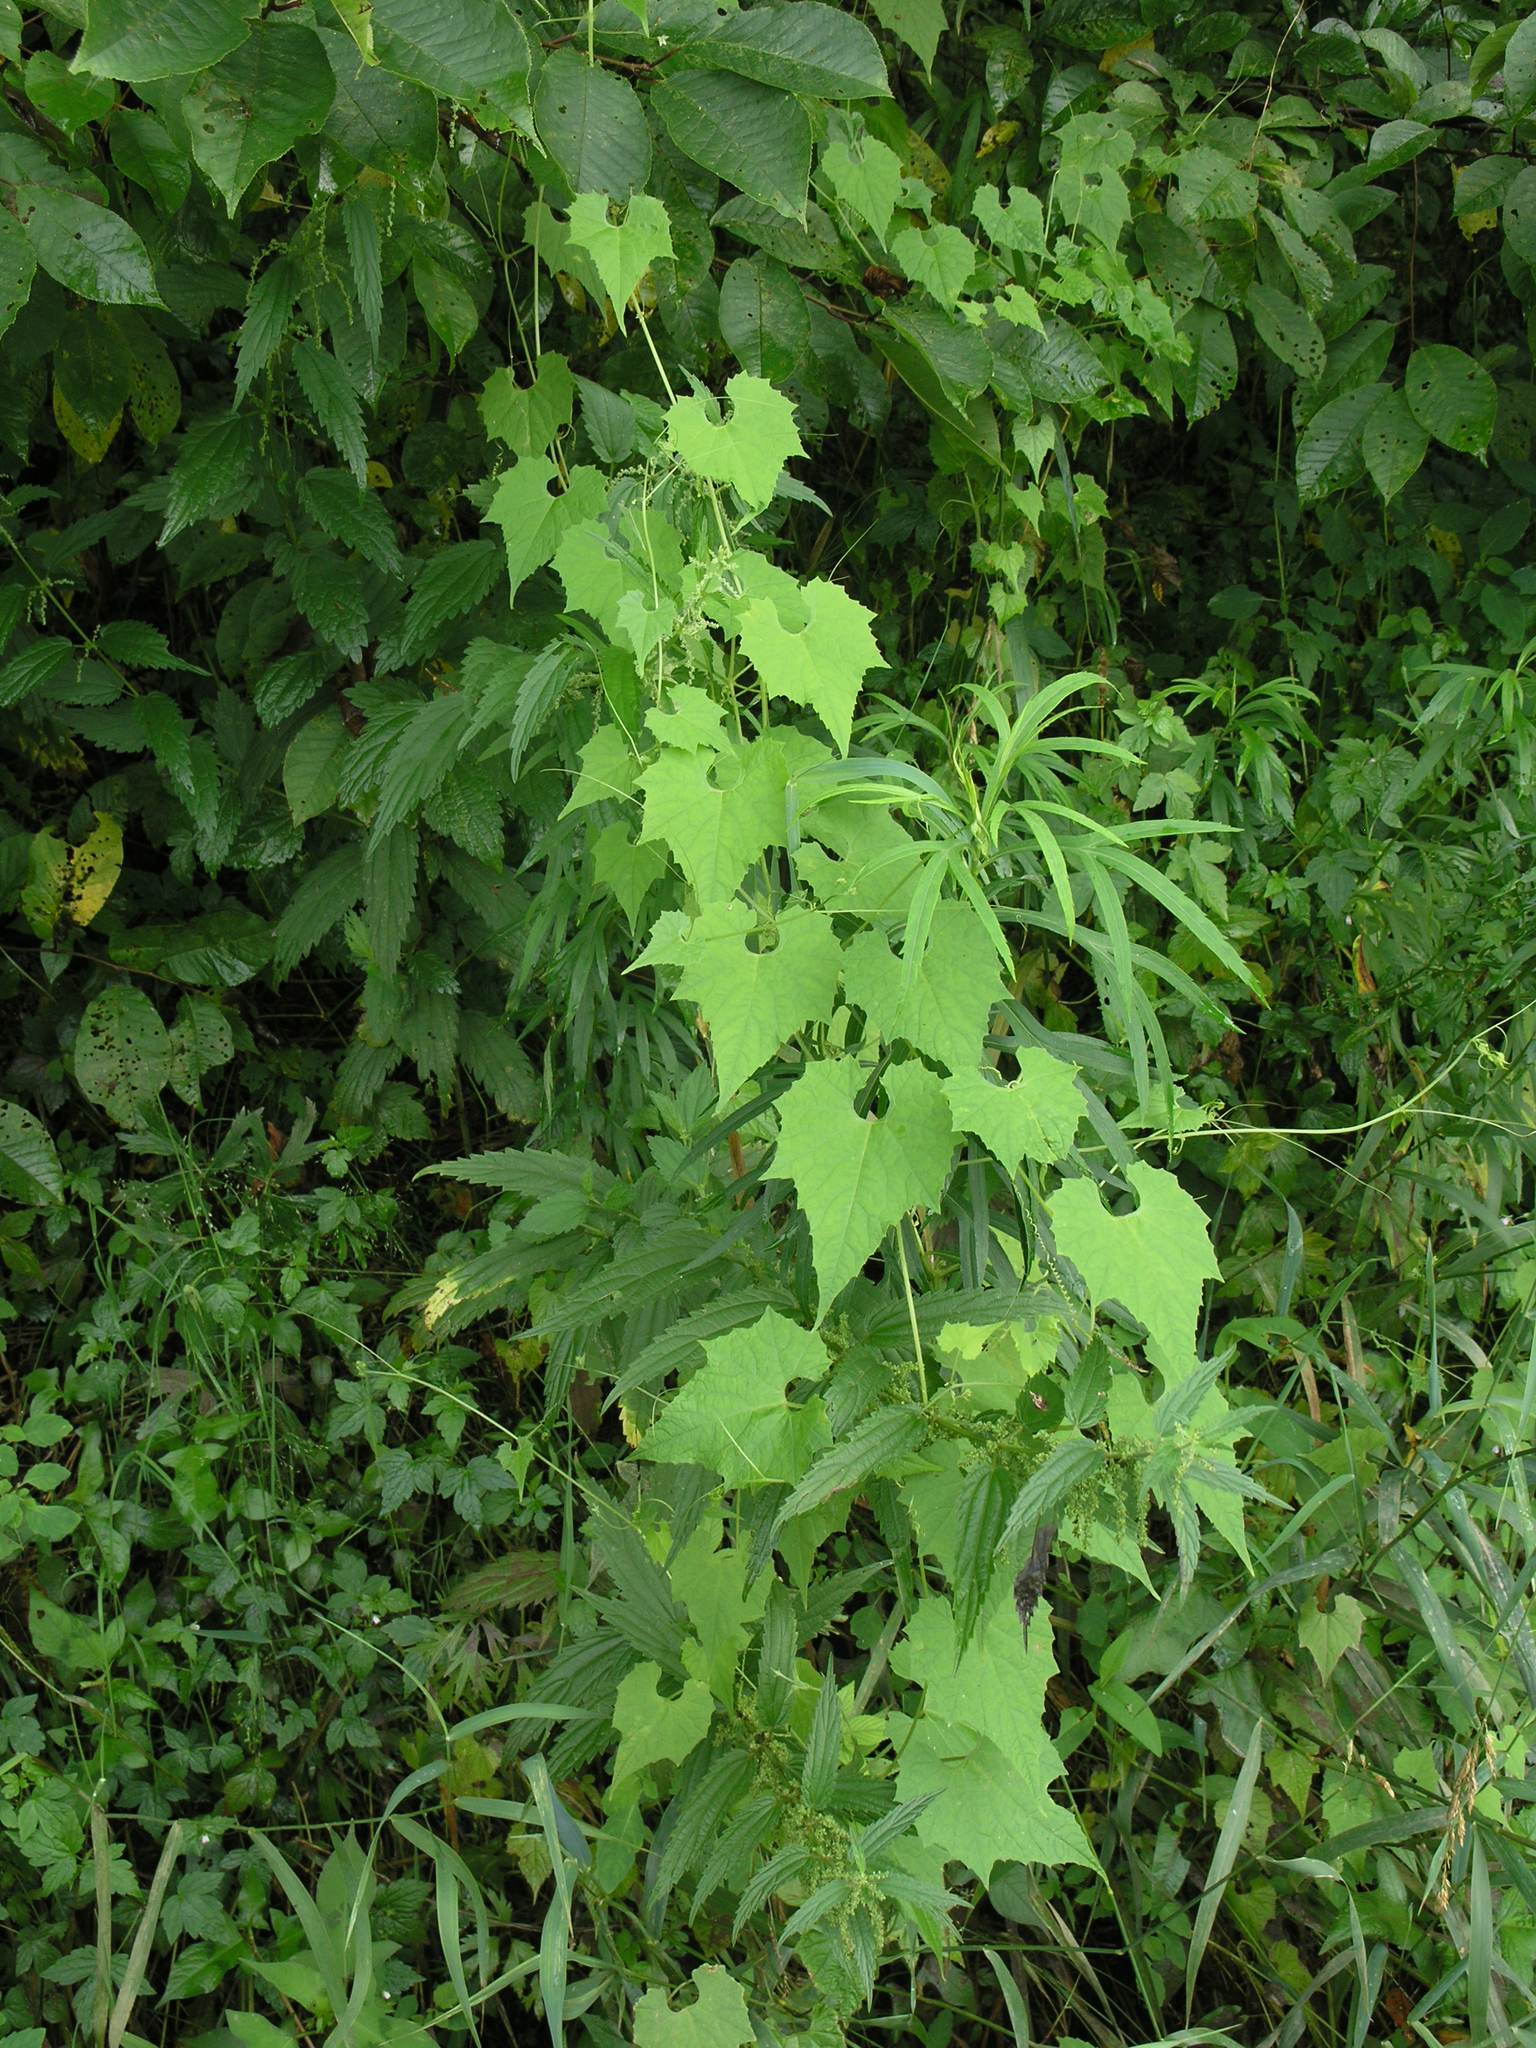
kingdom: Plantae
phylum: Tracheophyta
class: Magnoliopsida
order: Cucurbitales
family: Cucurbitaceae
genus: Schizopepon
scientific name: Schizopepon bryoniifolius
